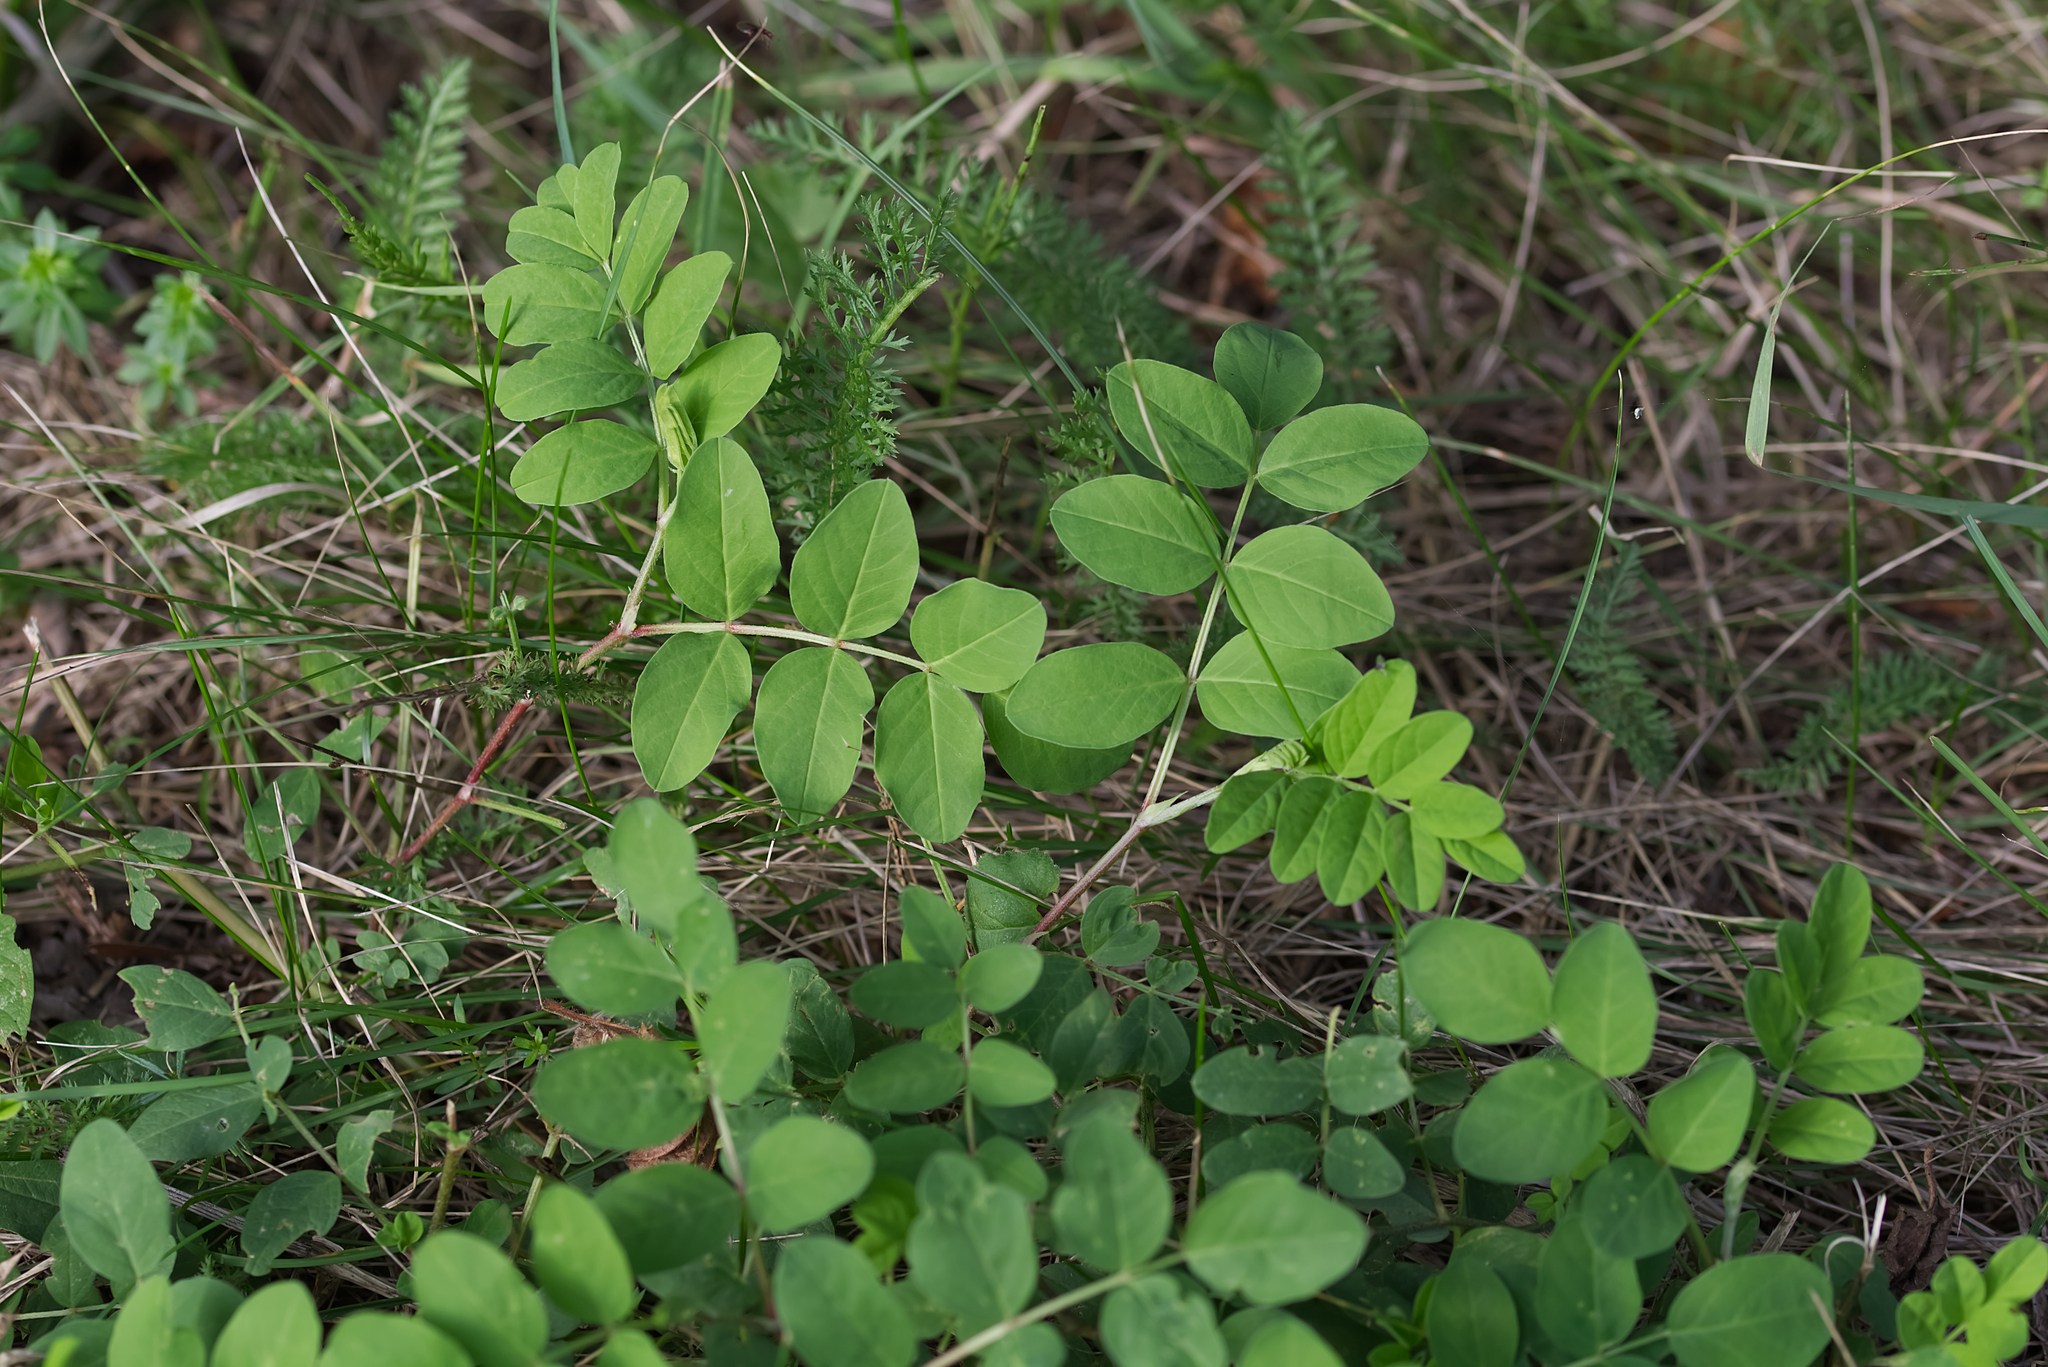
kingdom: Plantae
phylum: Tracheophyta
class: Magnoliopsida
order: Fabales
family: Fabaceae
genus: Astragalus
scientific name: Astragalus glycyphyllos
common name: Wild liquorice
